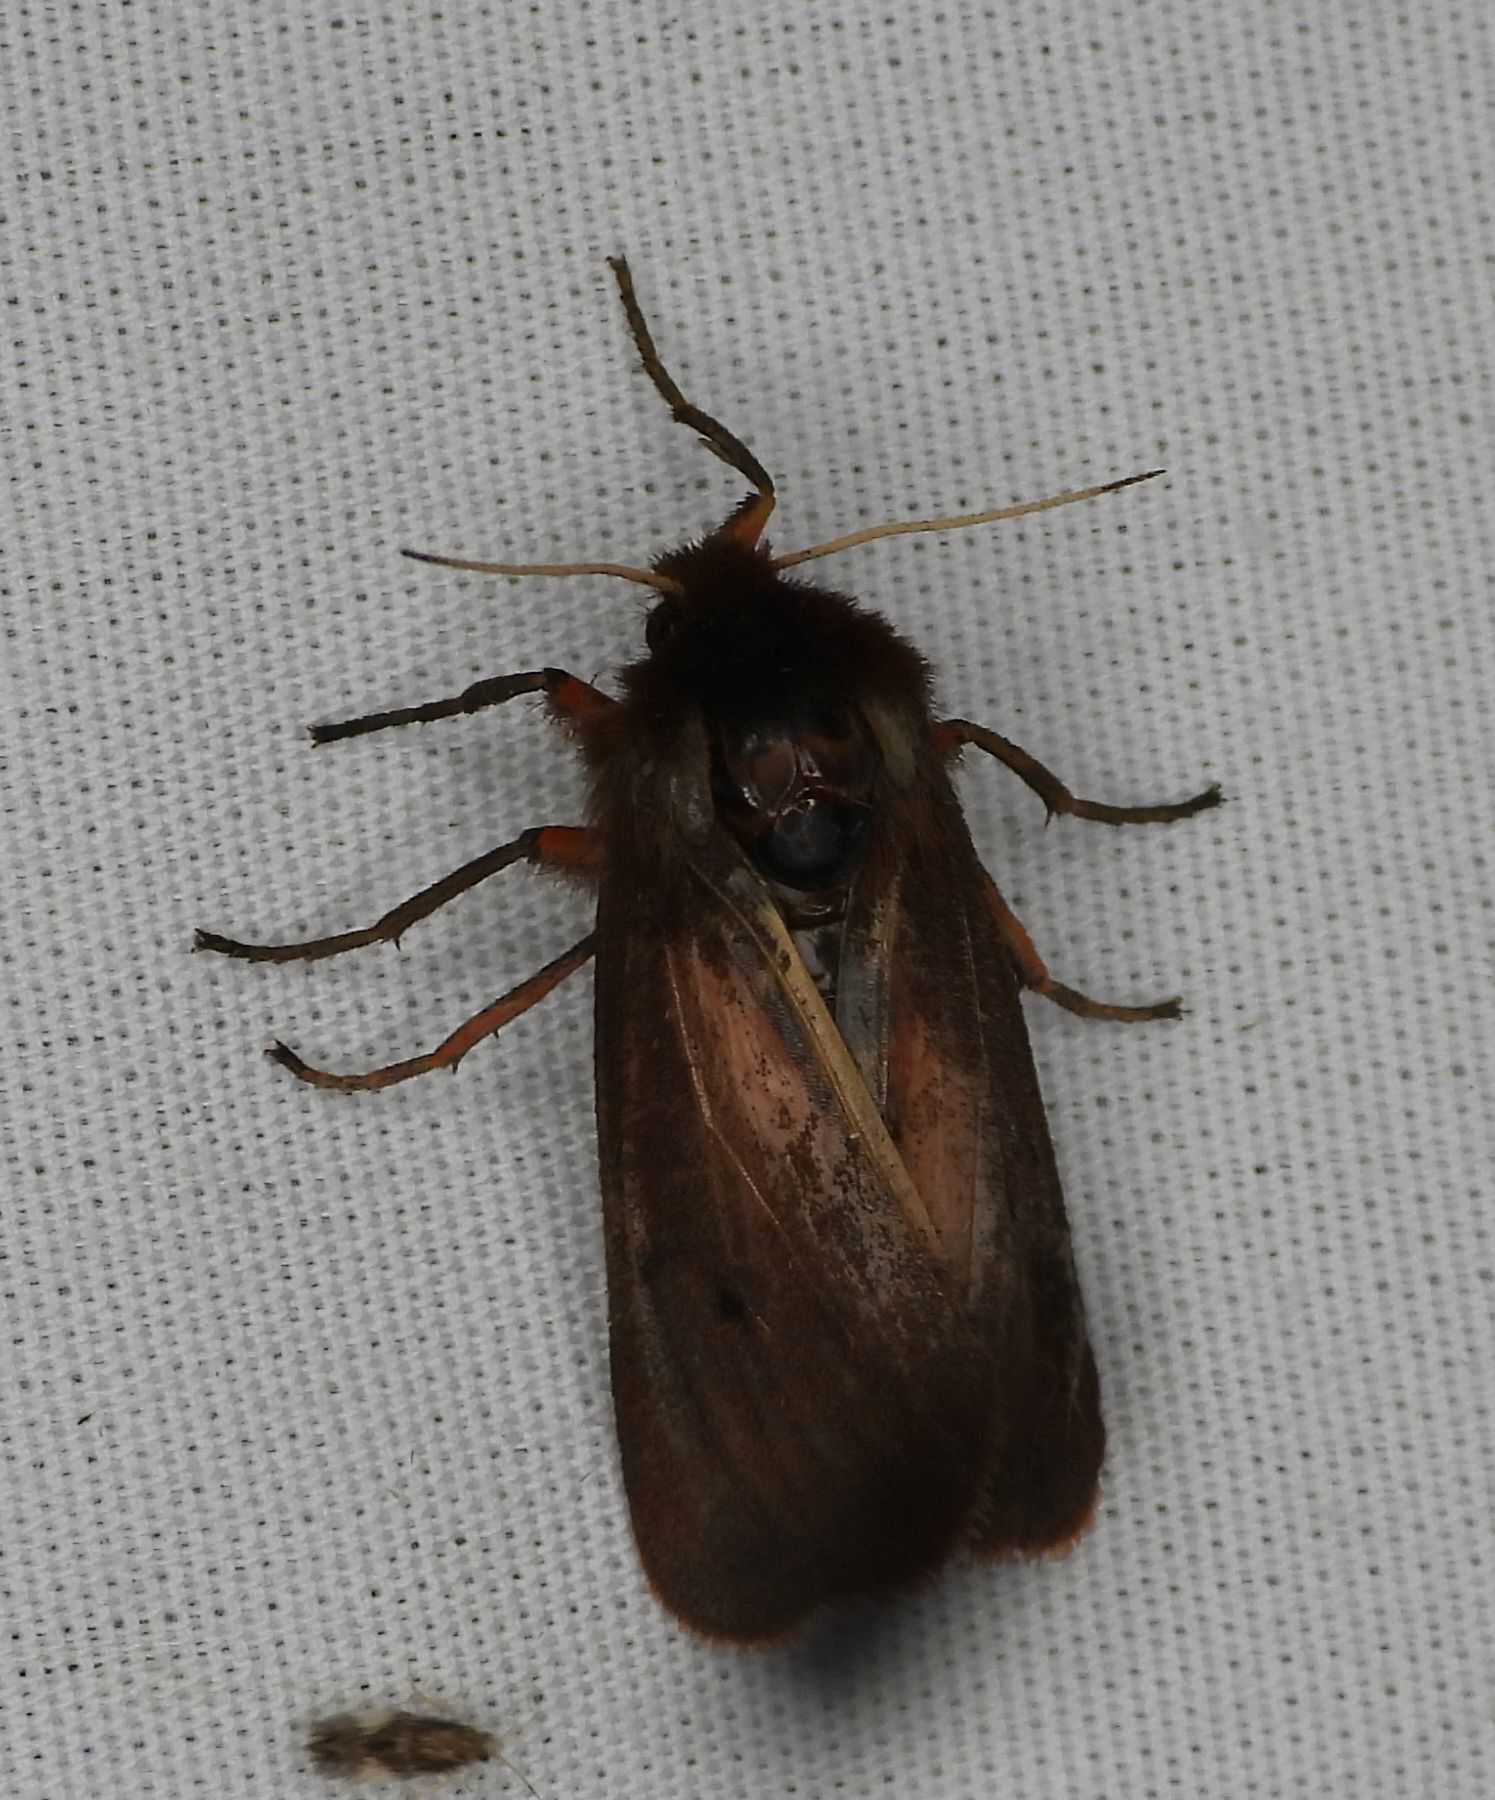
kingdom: Animalia
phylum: Arthropoda
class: Insecta
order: Lepidoptera
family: Erebidae
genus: Phragmatobia
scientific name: Phragmatobia fuliginosa
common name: Ruby tiger
